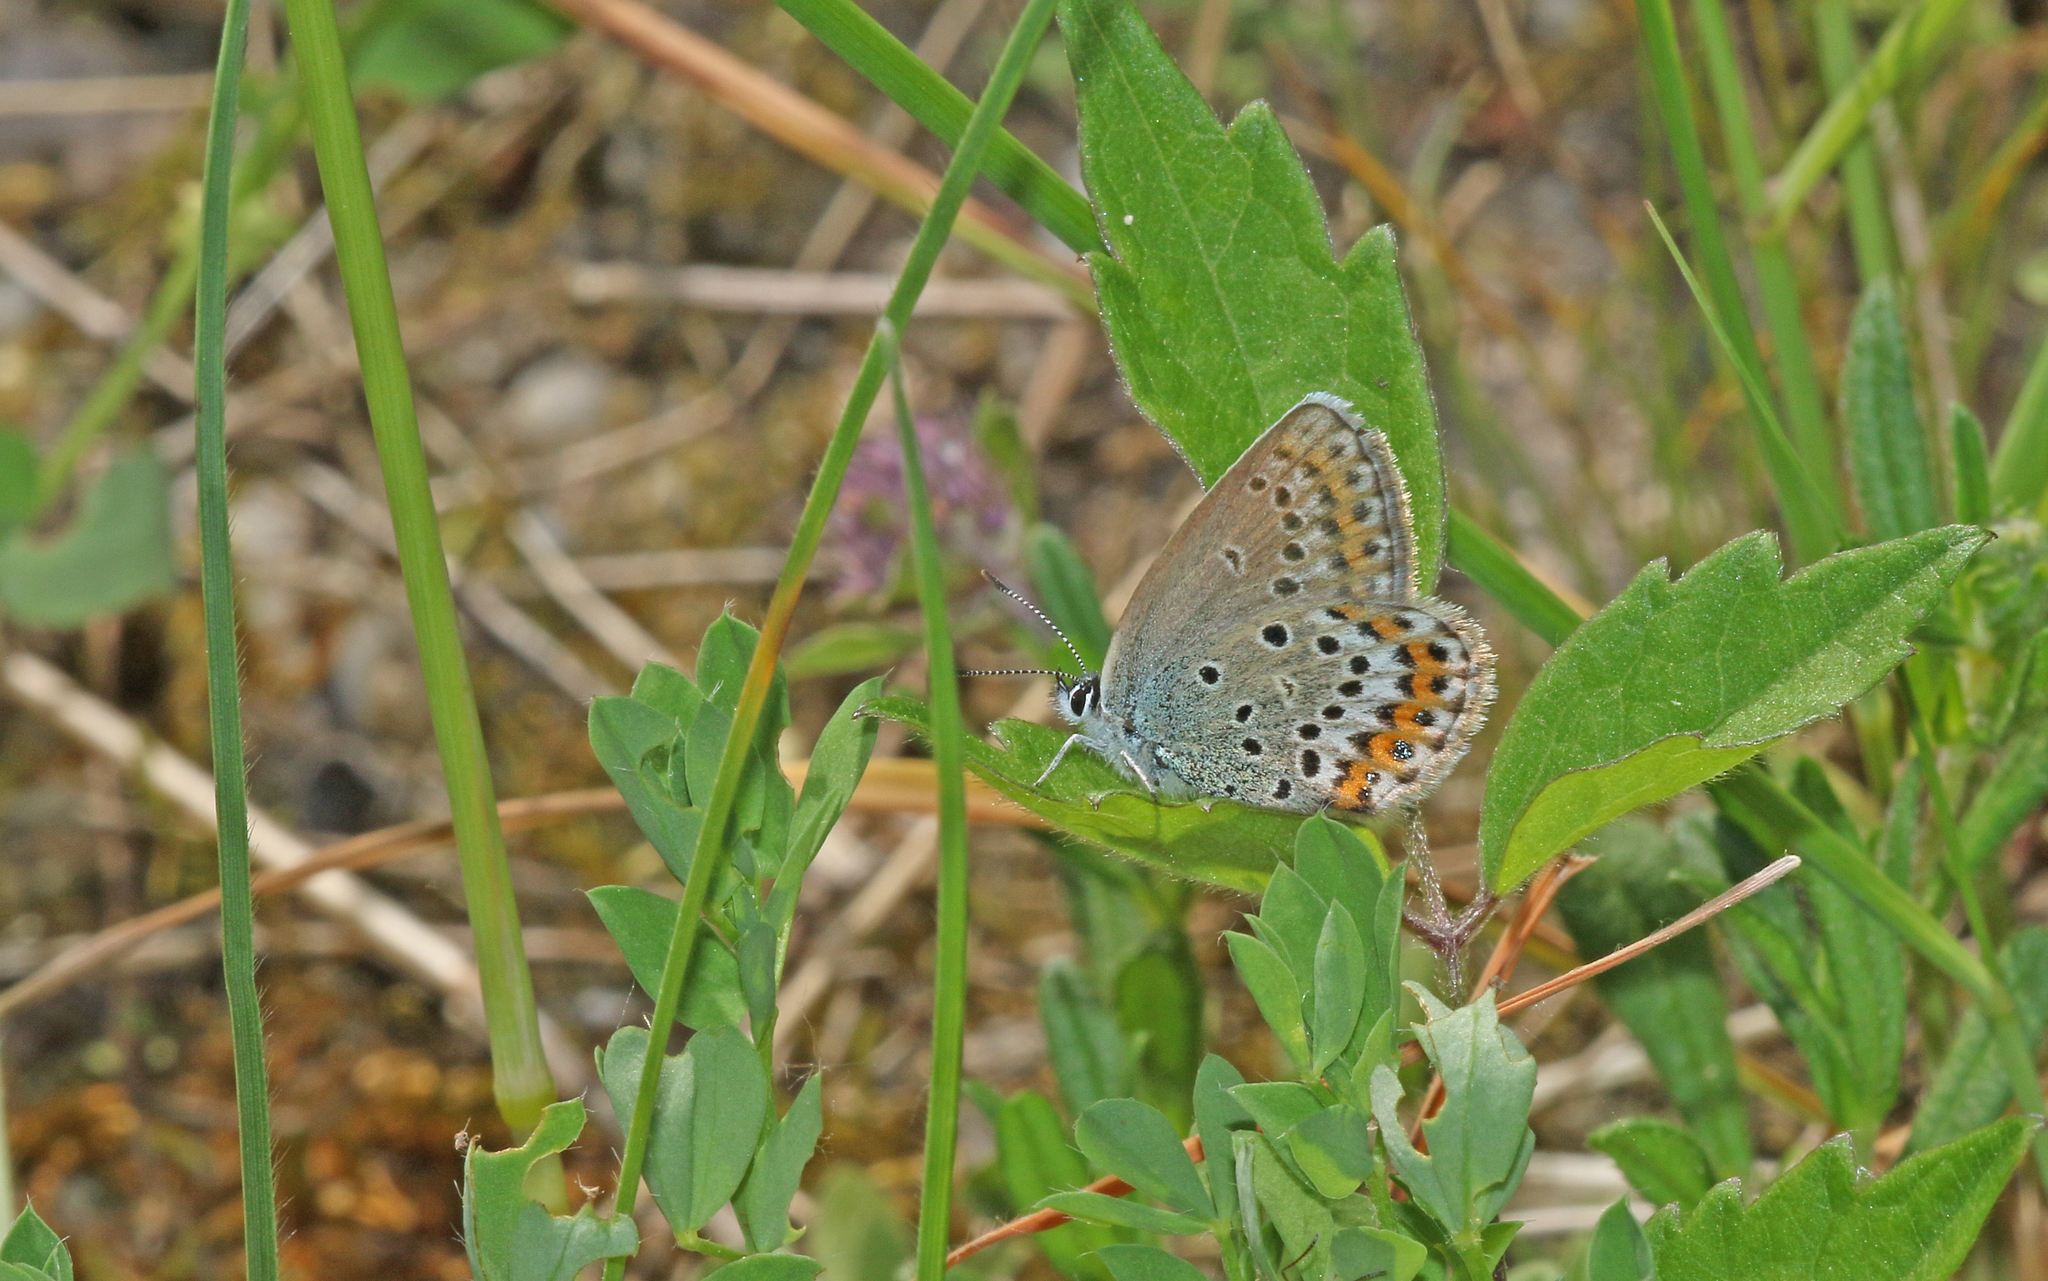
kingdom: Animalia
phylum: Arthropoda
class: Insecta
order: Lepidoptera
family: Lycaenidae
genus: Lycaeides
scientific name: Lycaeides idas
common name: Northern blue
